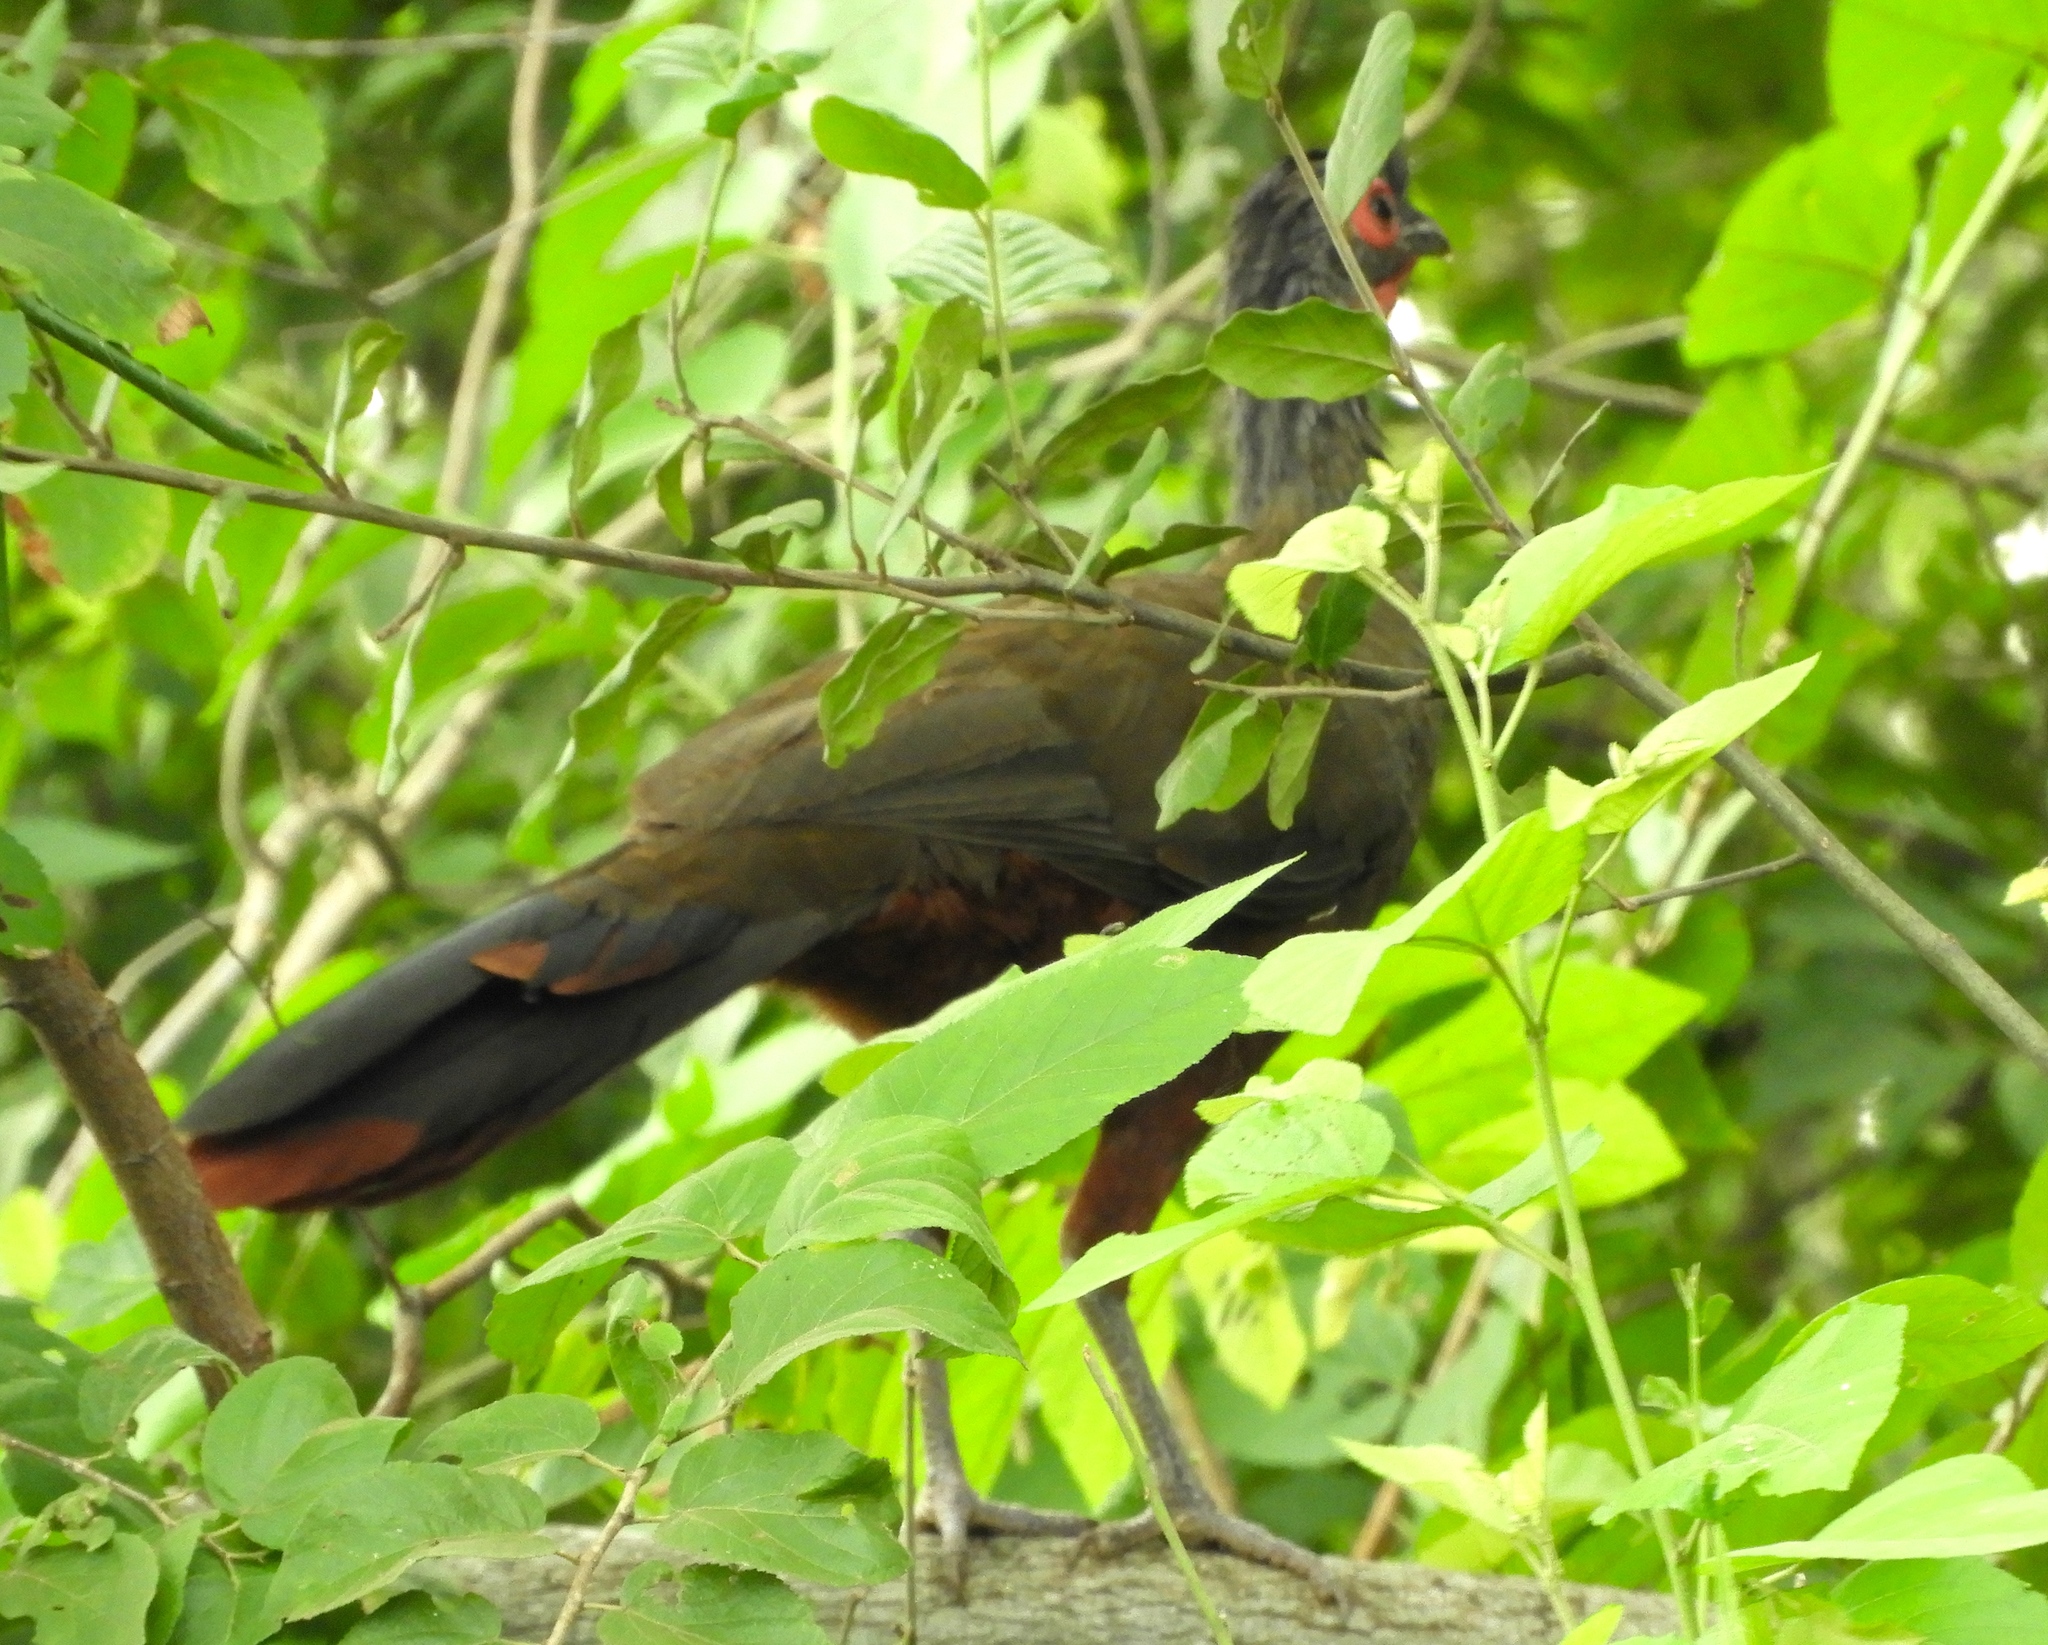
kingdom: Animalia
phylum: Chordata
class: Aves
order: Galliformes
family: Cracidae
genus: Ortalis
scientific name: Ortalis wagleri
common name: Rufous-bellied chachalaca
